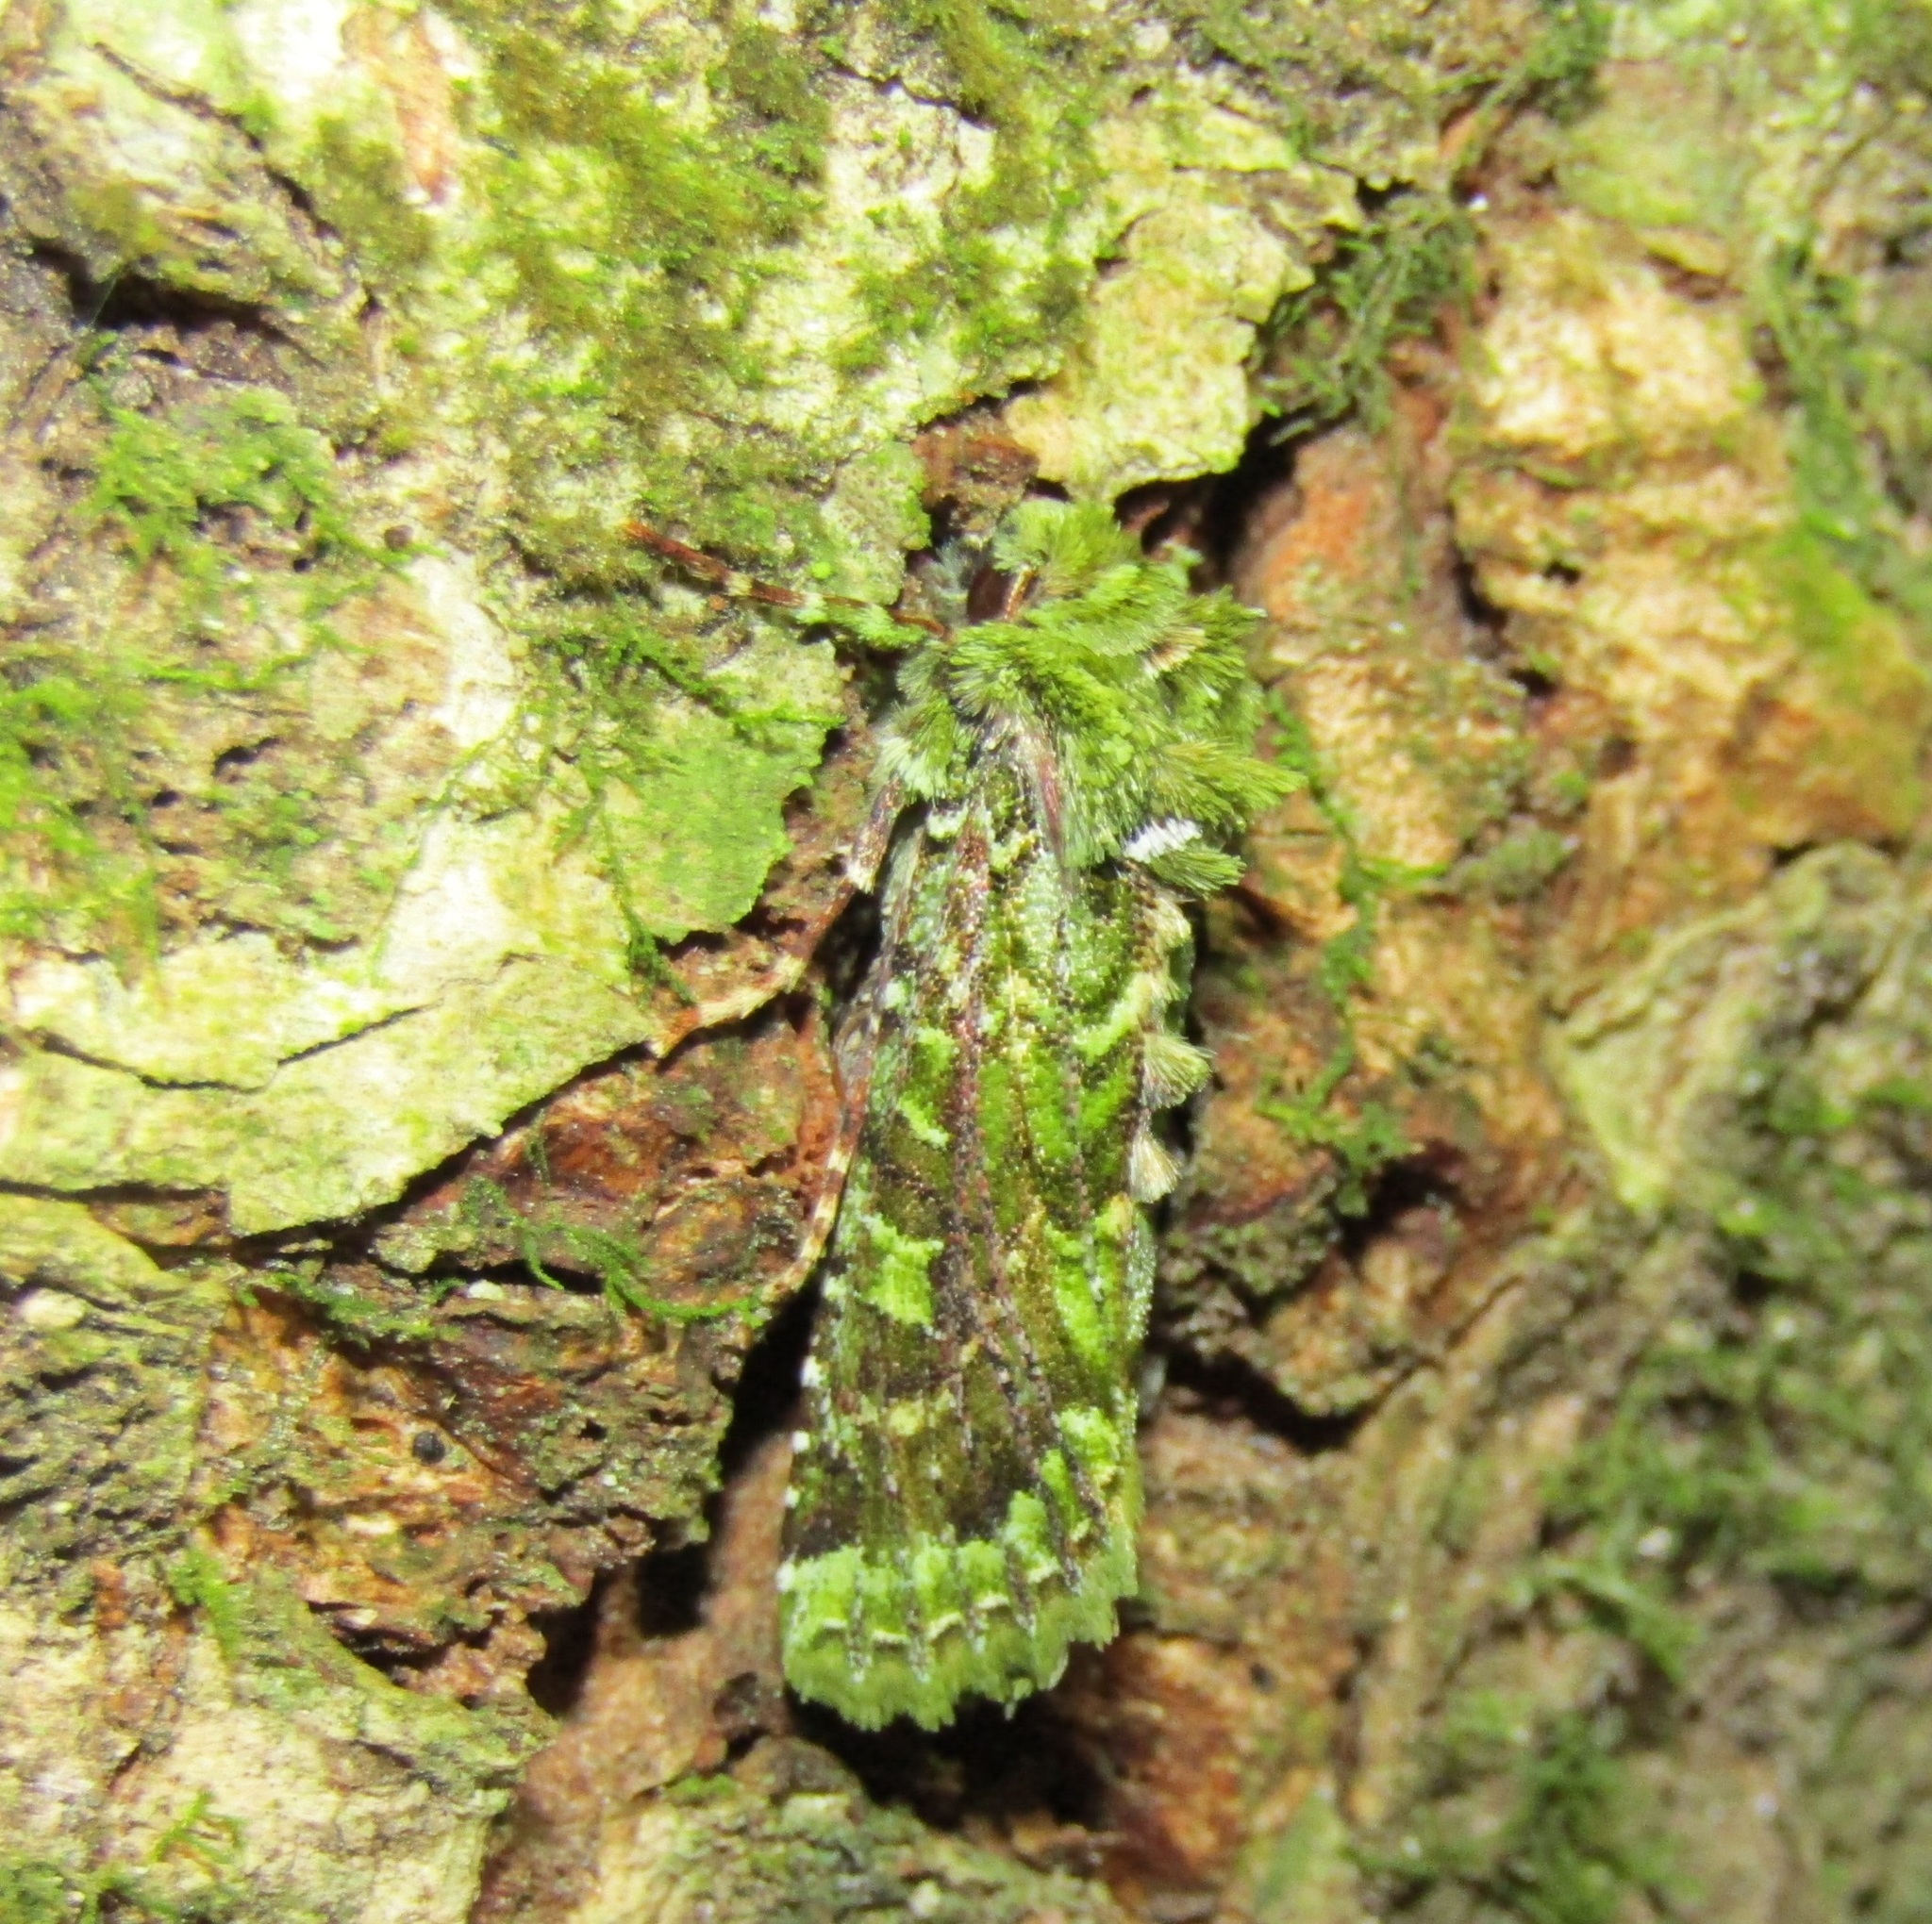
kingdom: Animalia
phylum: Arthropoda
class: Insecta
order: Lepidoptera
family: Noctuidae
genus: Feredayia
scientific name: Feredayia grammosa
